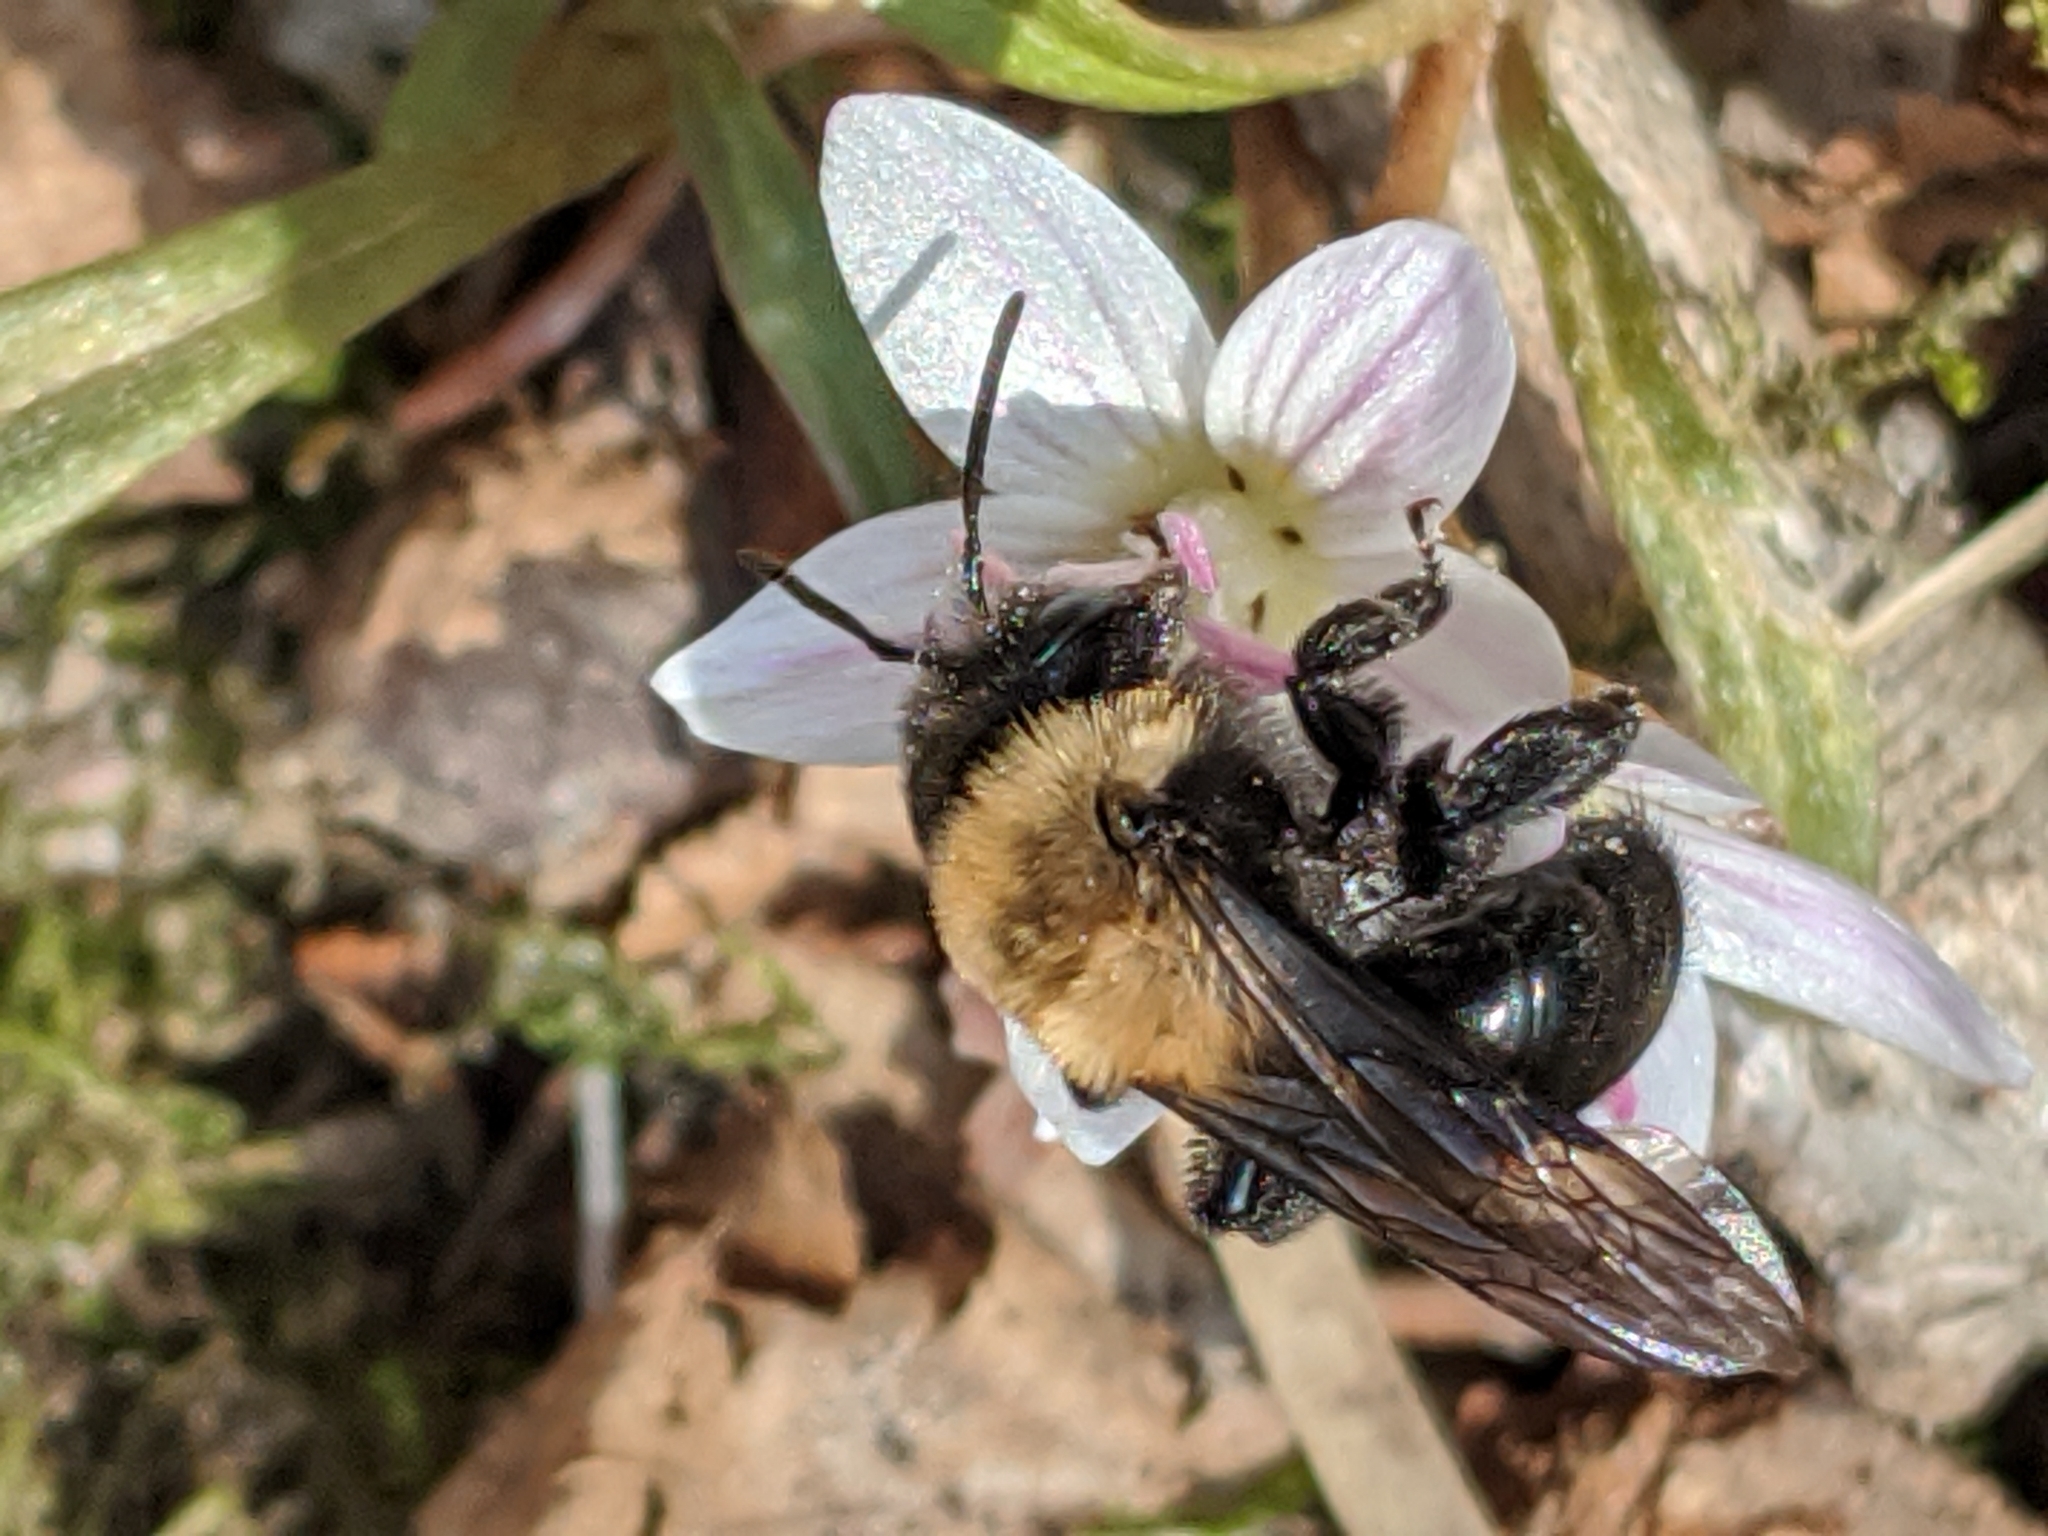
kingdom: Animalia
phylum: Arthropoda
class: Insecta
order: Hymenoptera
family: Andrenidae
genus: Andrena
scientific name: Andrena carlini
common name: Carlin's mining bee
